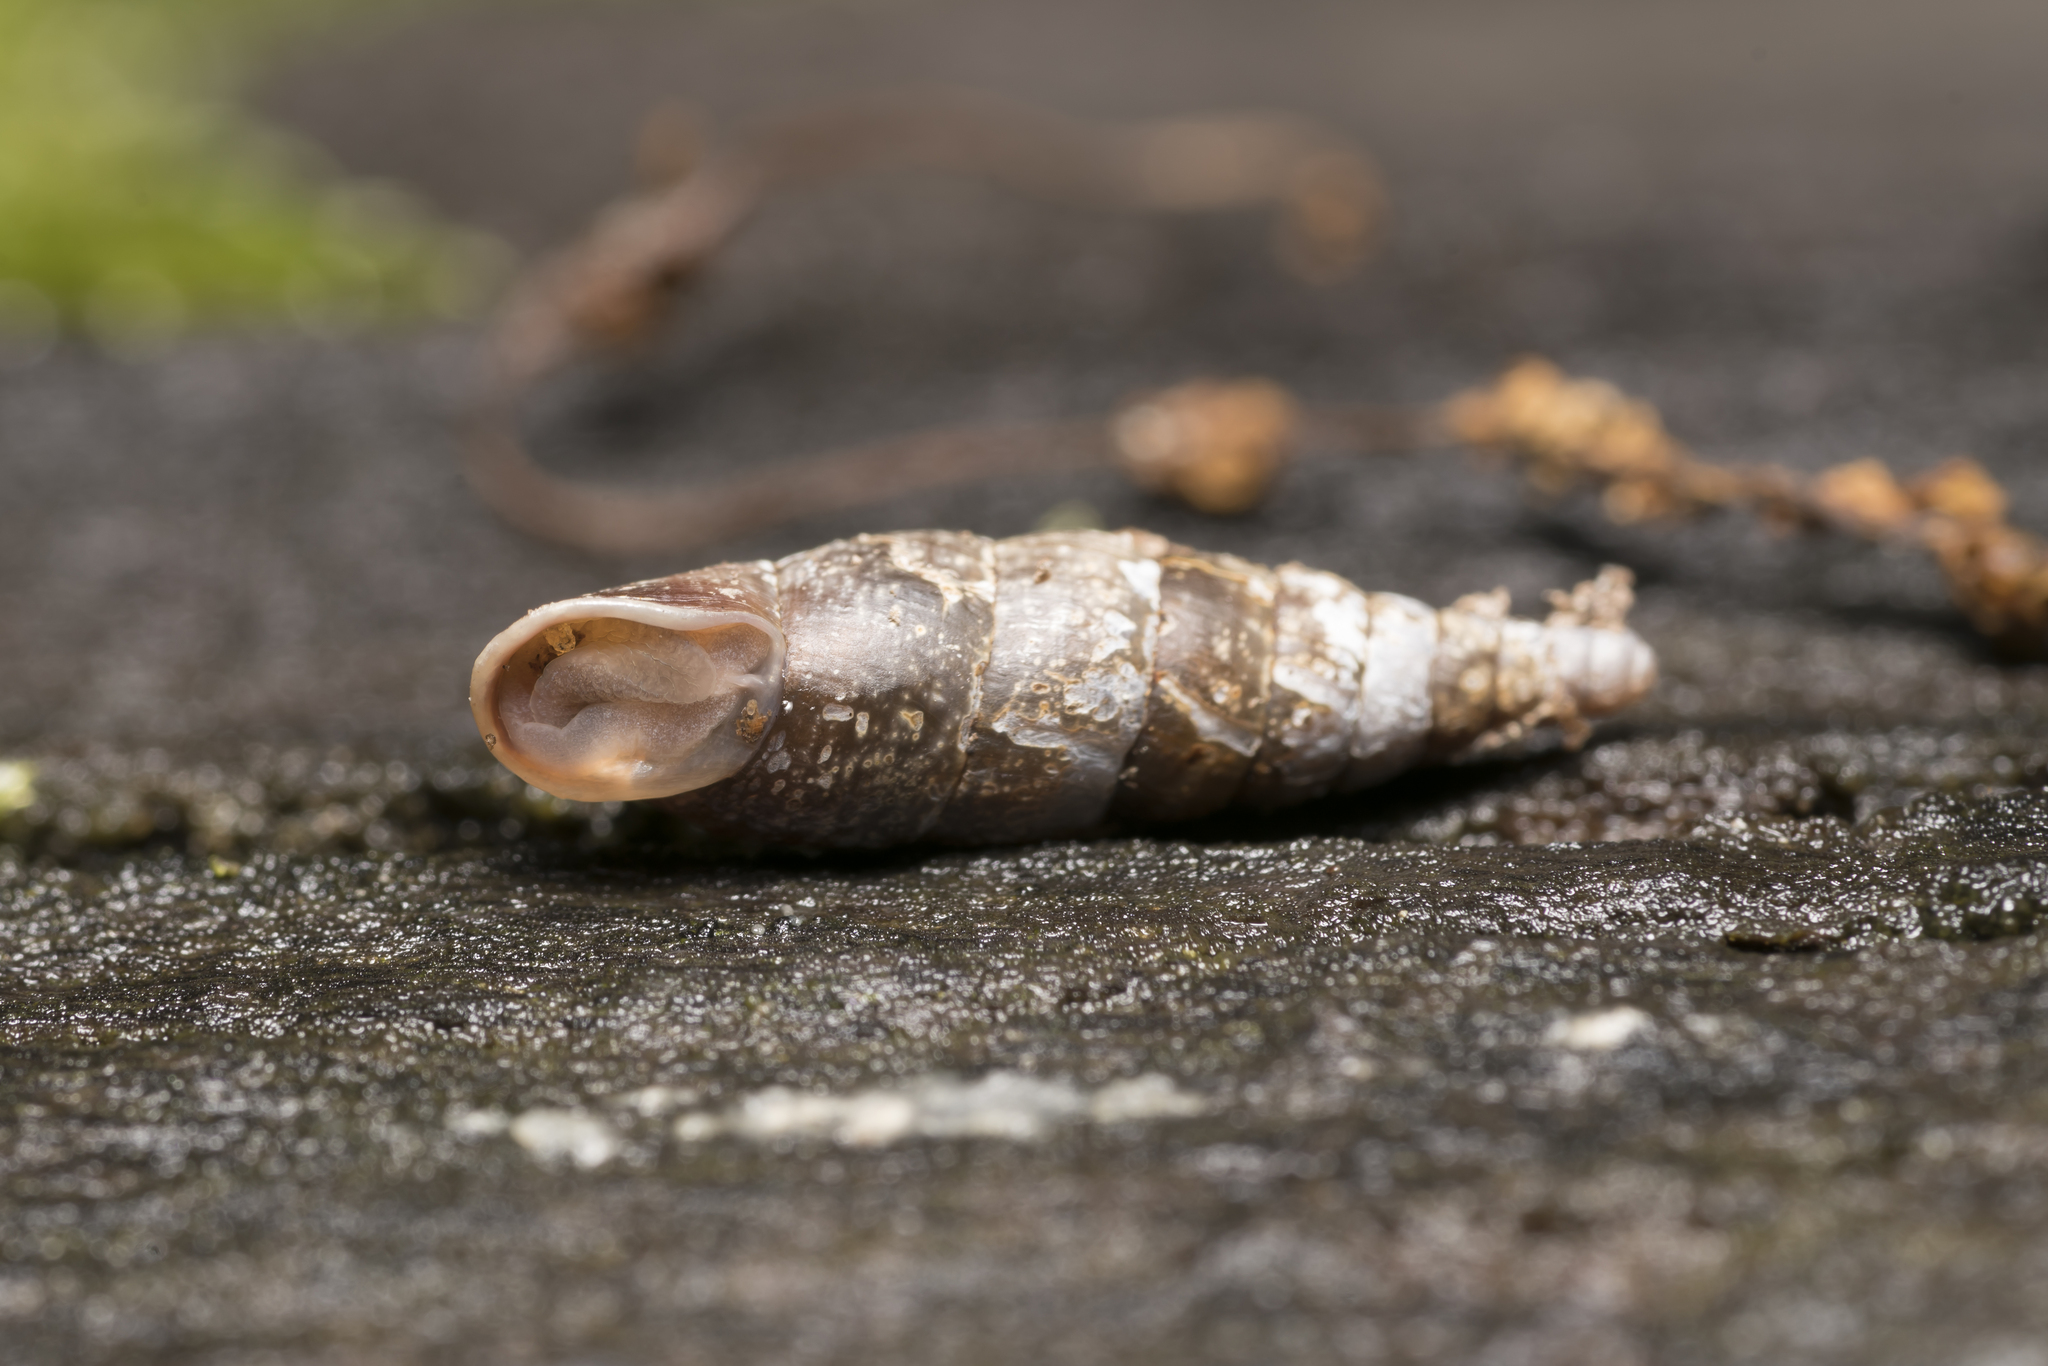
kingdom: Animalia
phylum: Mollusca
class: Gastropoda
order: Stylommatophora
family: Clausiliidae
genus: Cochlodina
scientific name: Cochlodina laminata
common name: Plaited door snail
